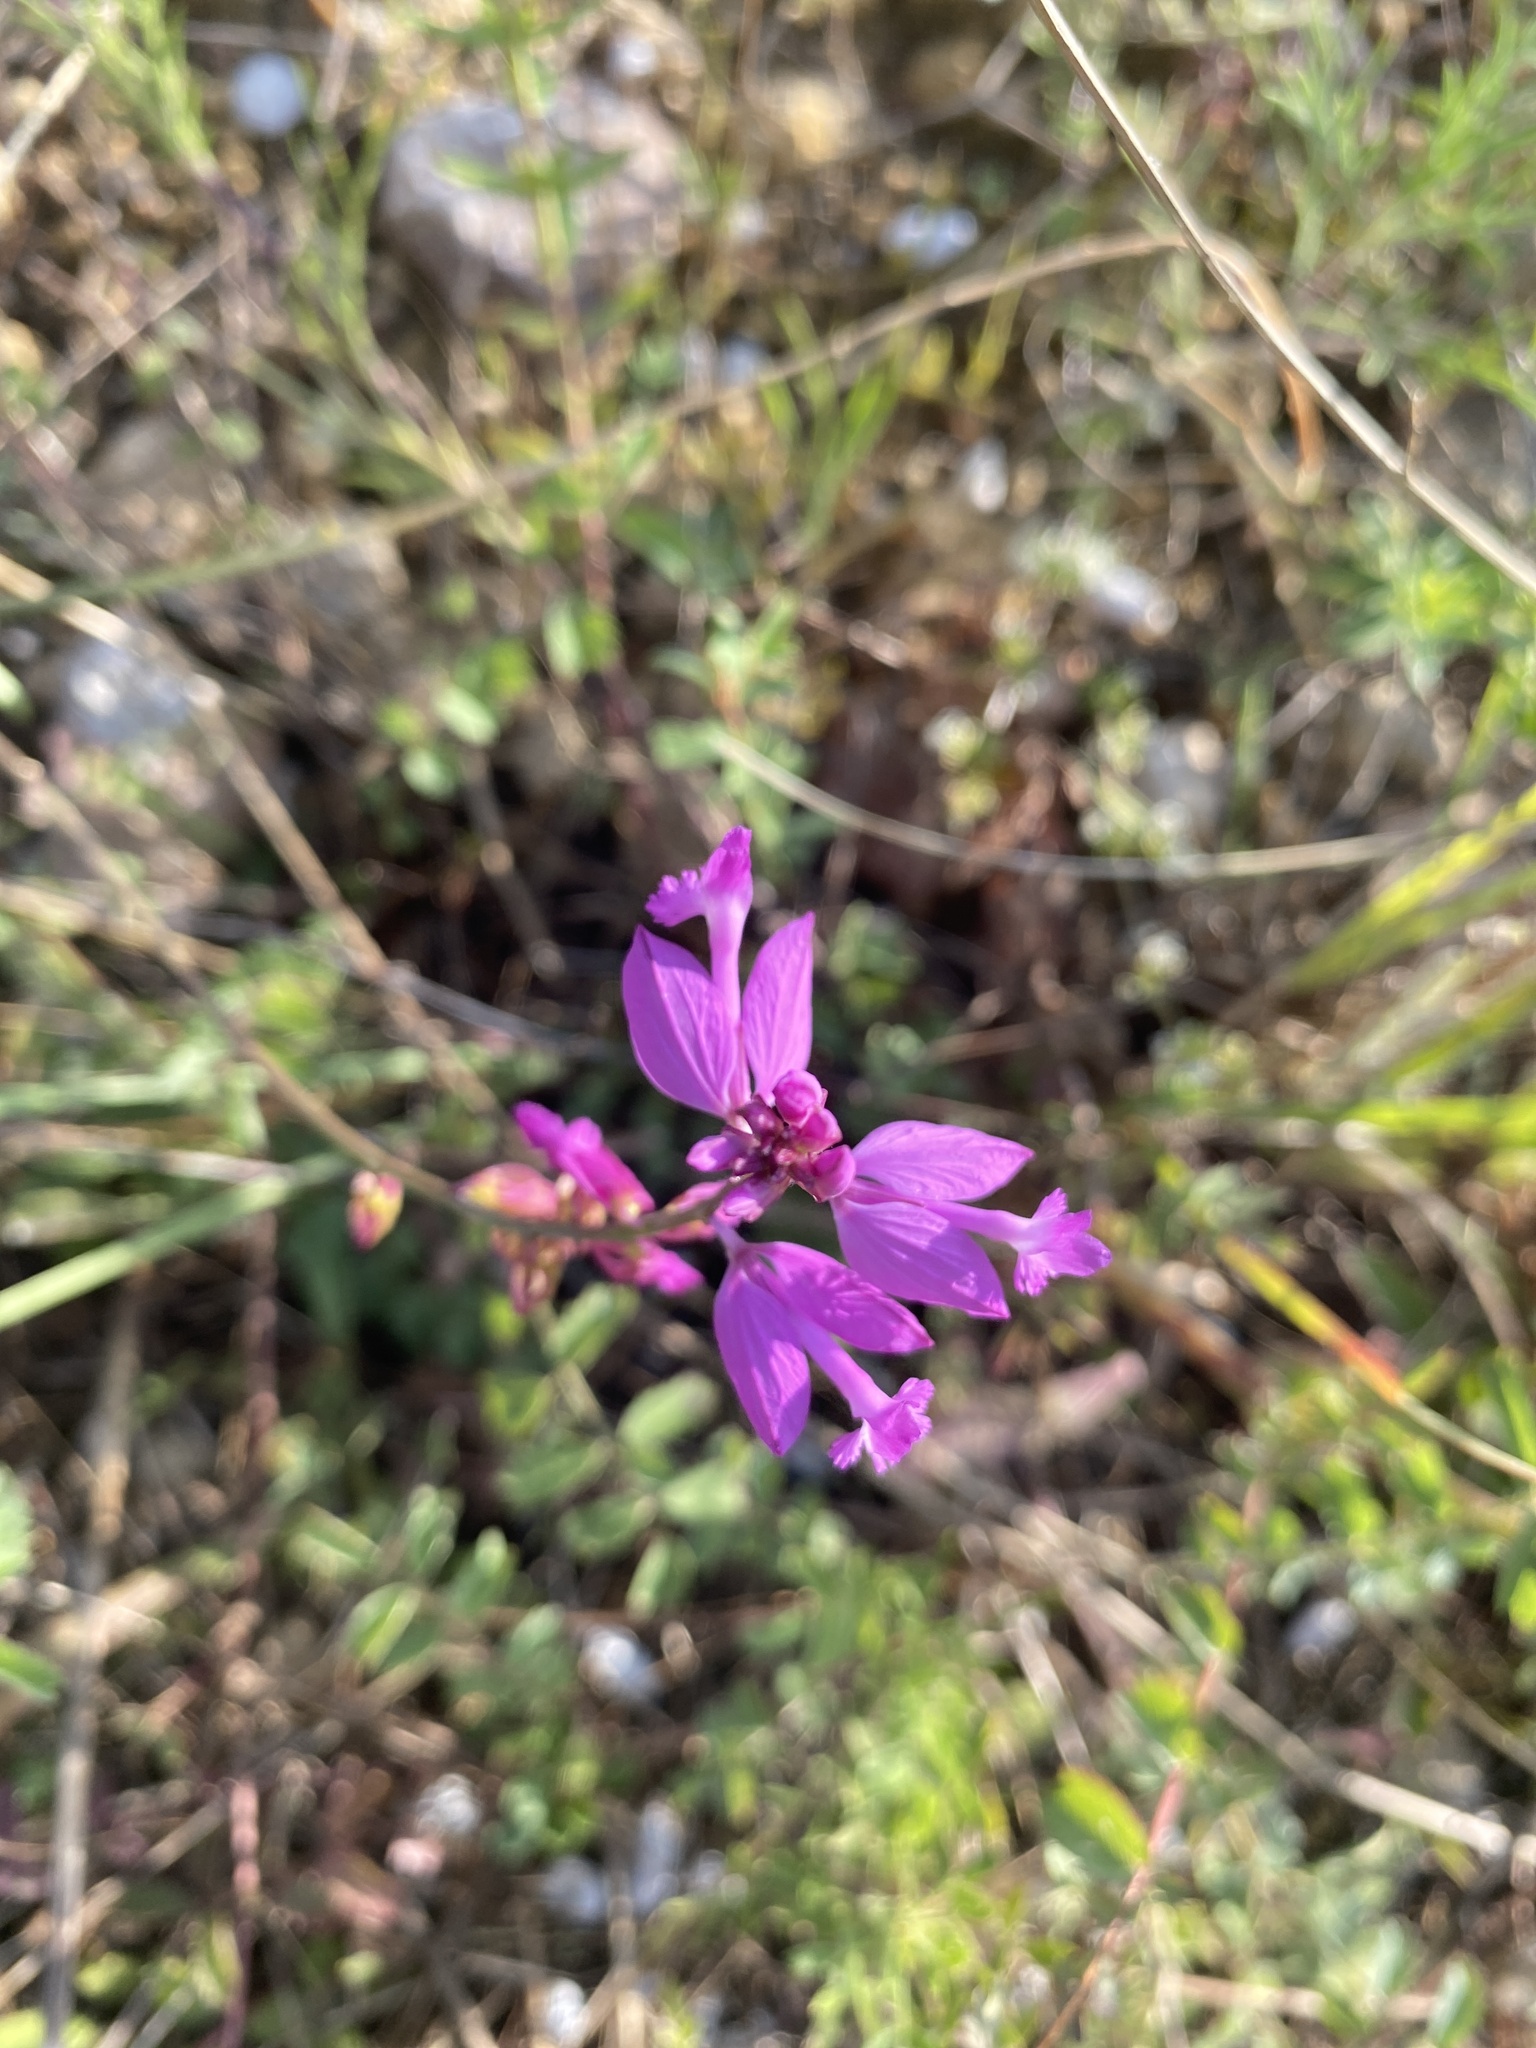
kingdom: Plantae
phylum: Tracheophyta
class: Magnoliopsida
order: Fabales
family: Polygalaceae
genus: Polygala
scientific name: Polygala major
